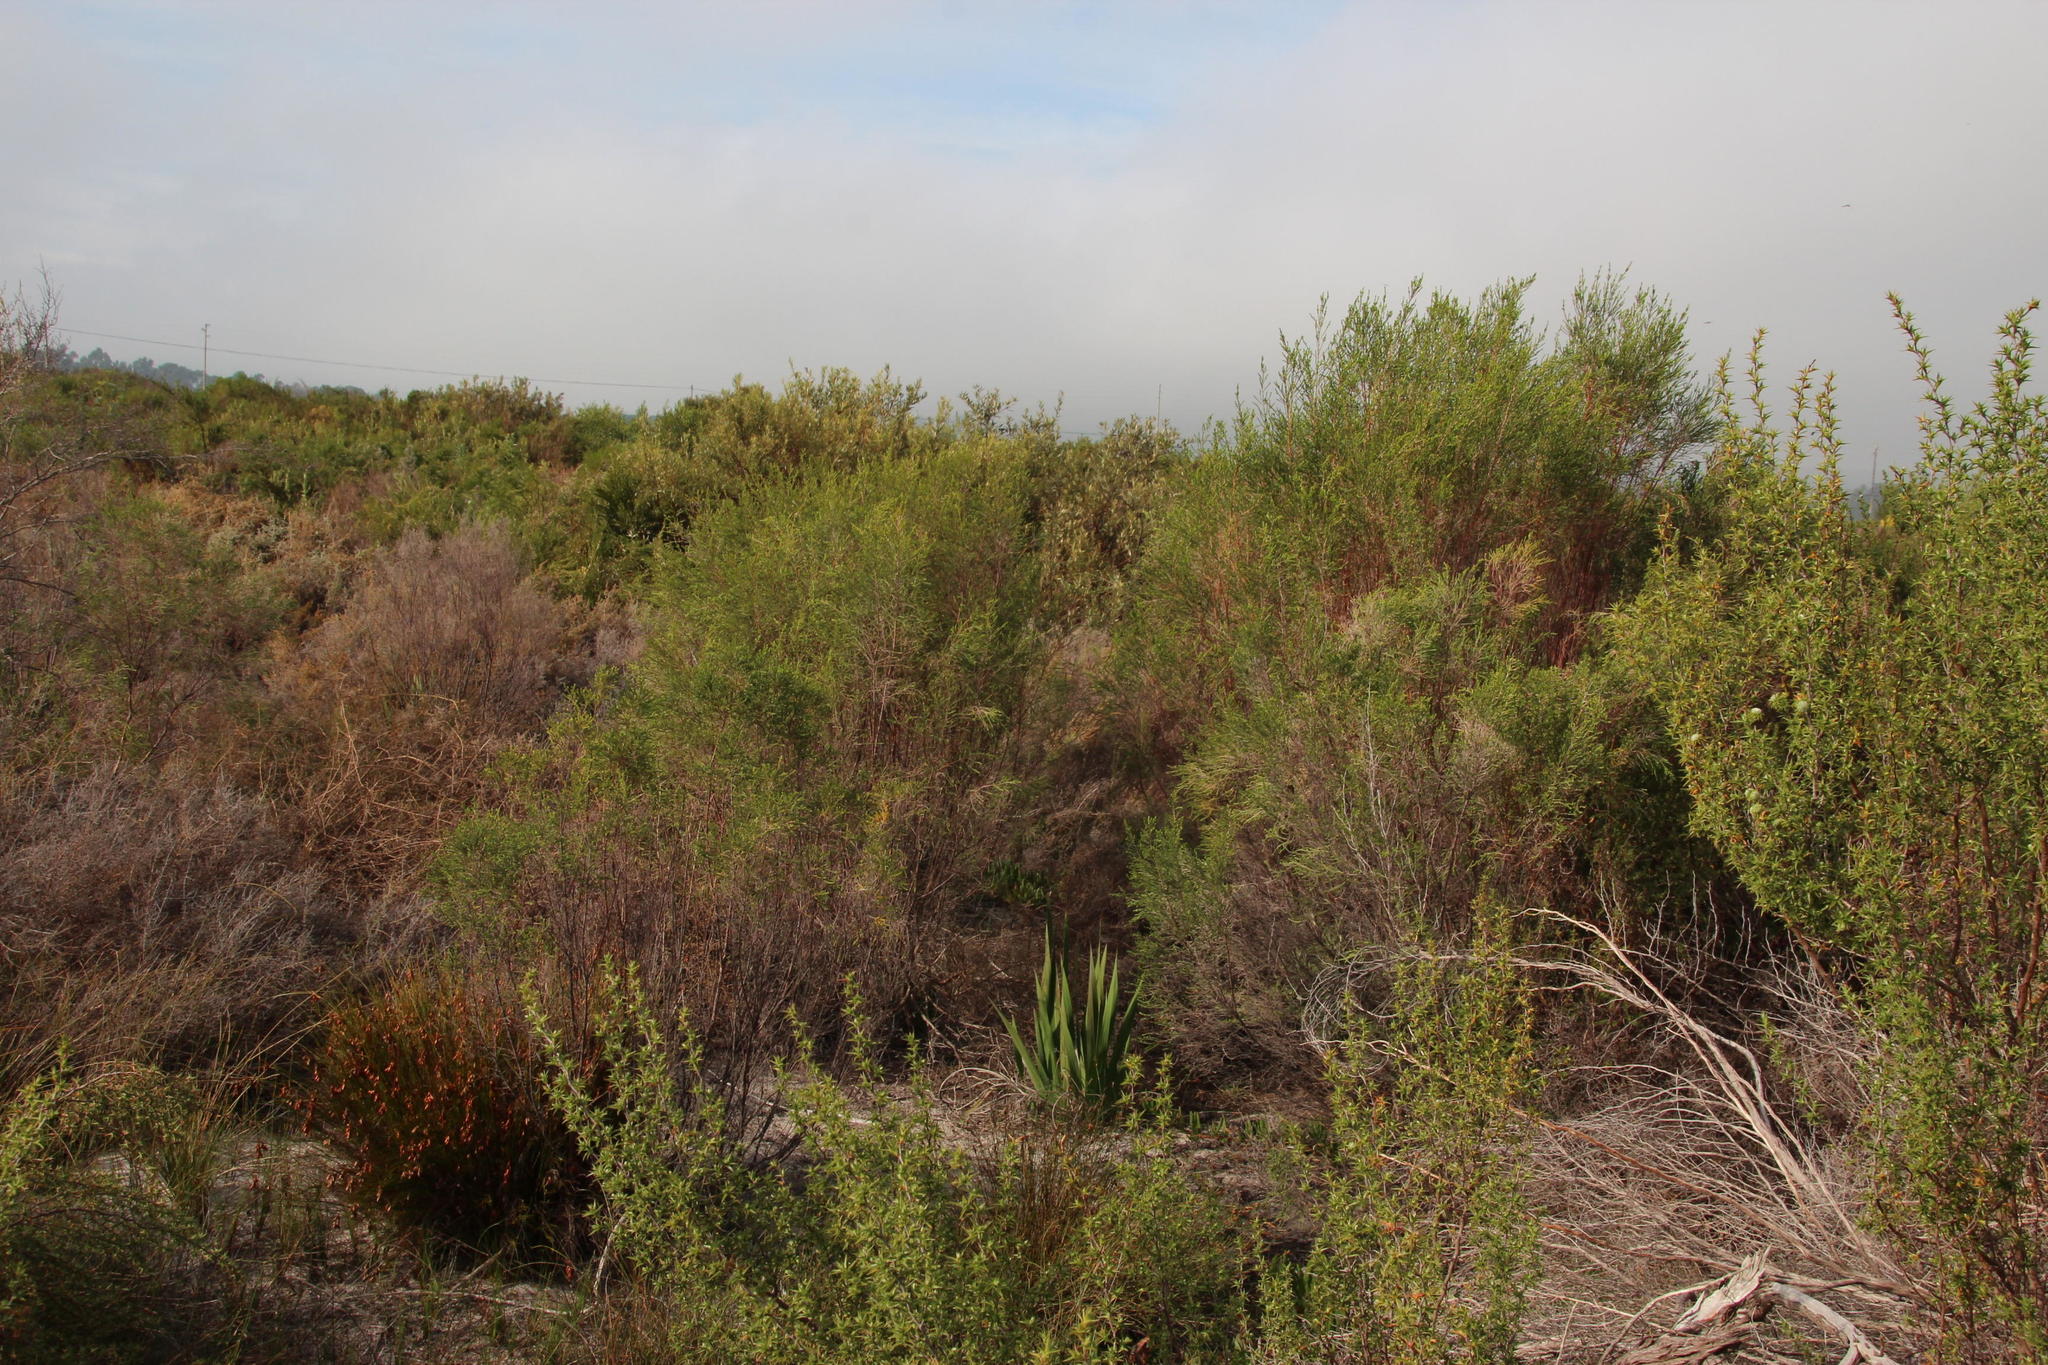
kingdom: Plantae
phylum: Tracheophyta
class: Magnoliopsida
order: Malvales
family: Thymelaeaceae
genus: Passerina
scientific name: Passerina corymbosa
